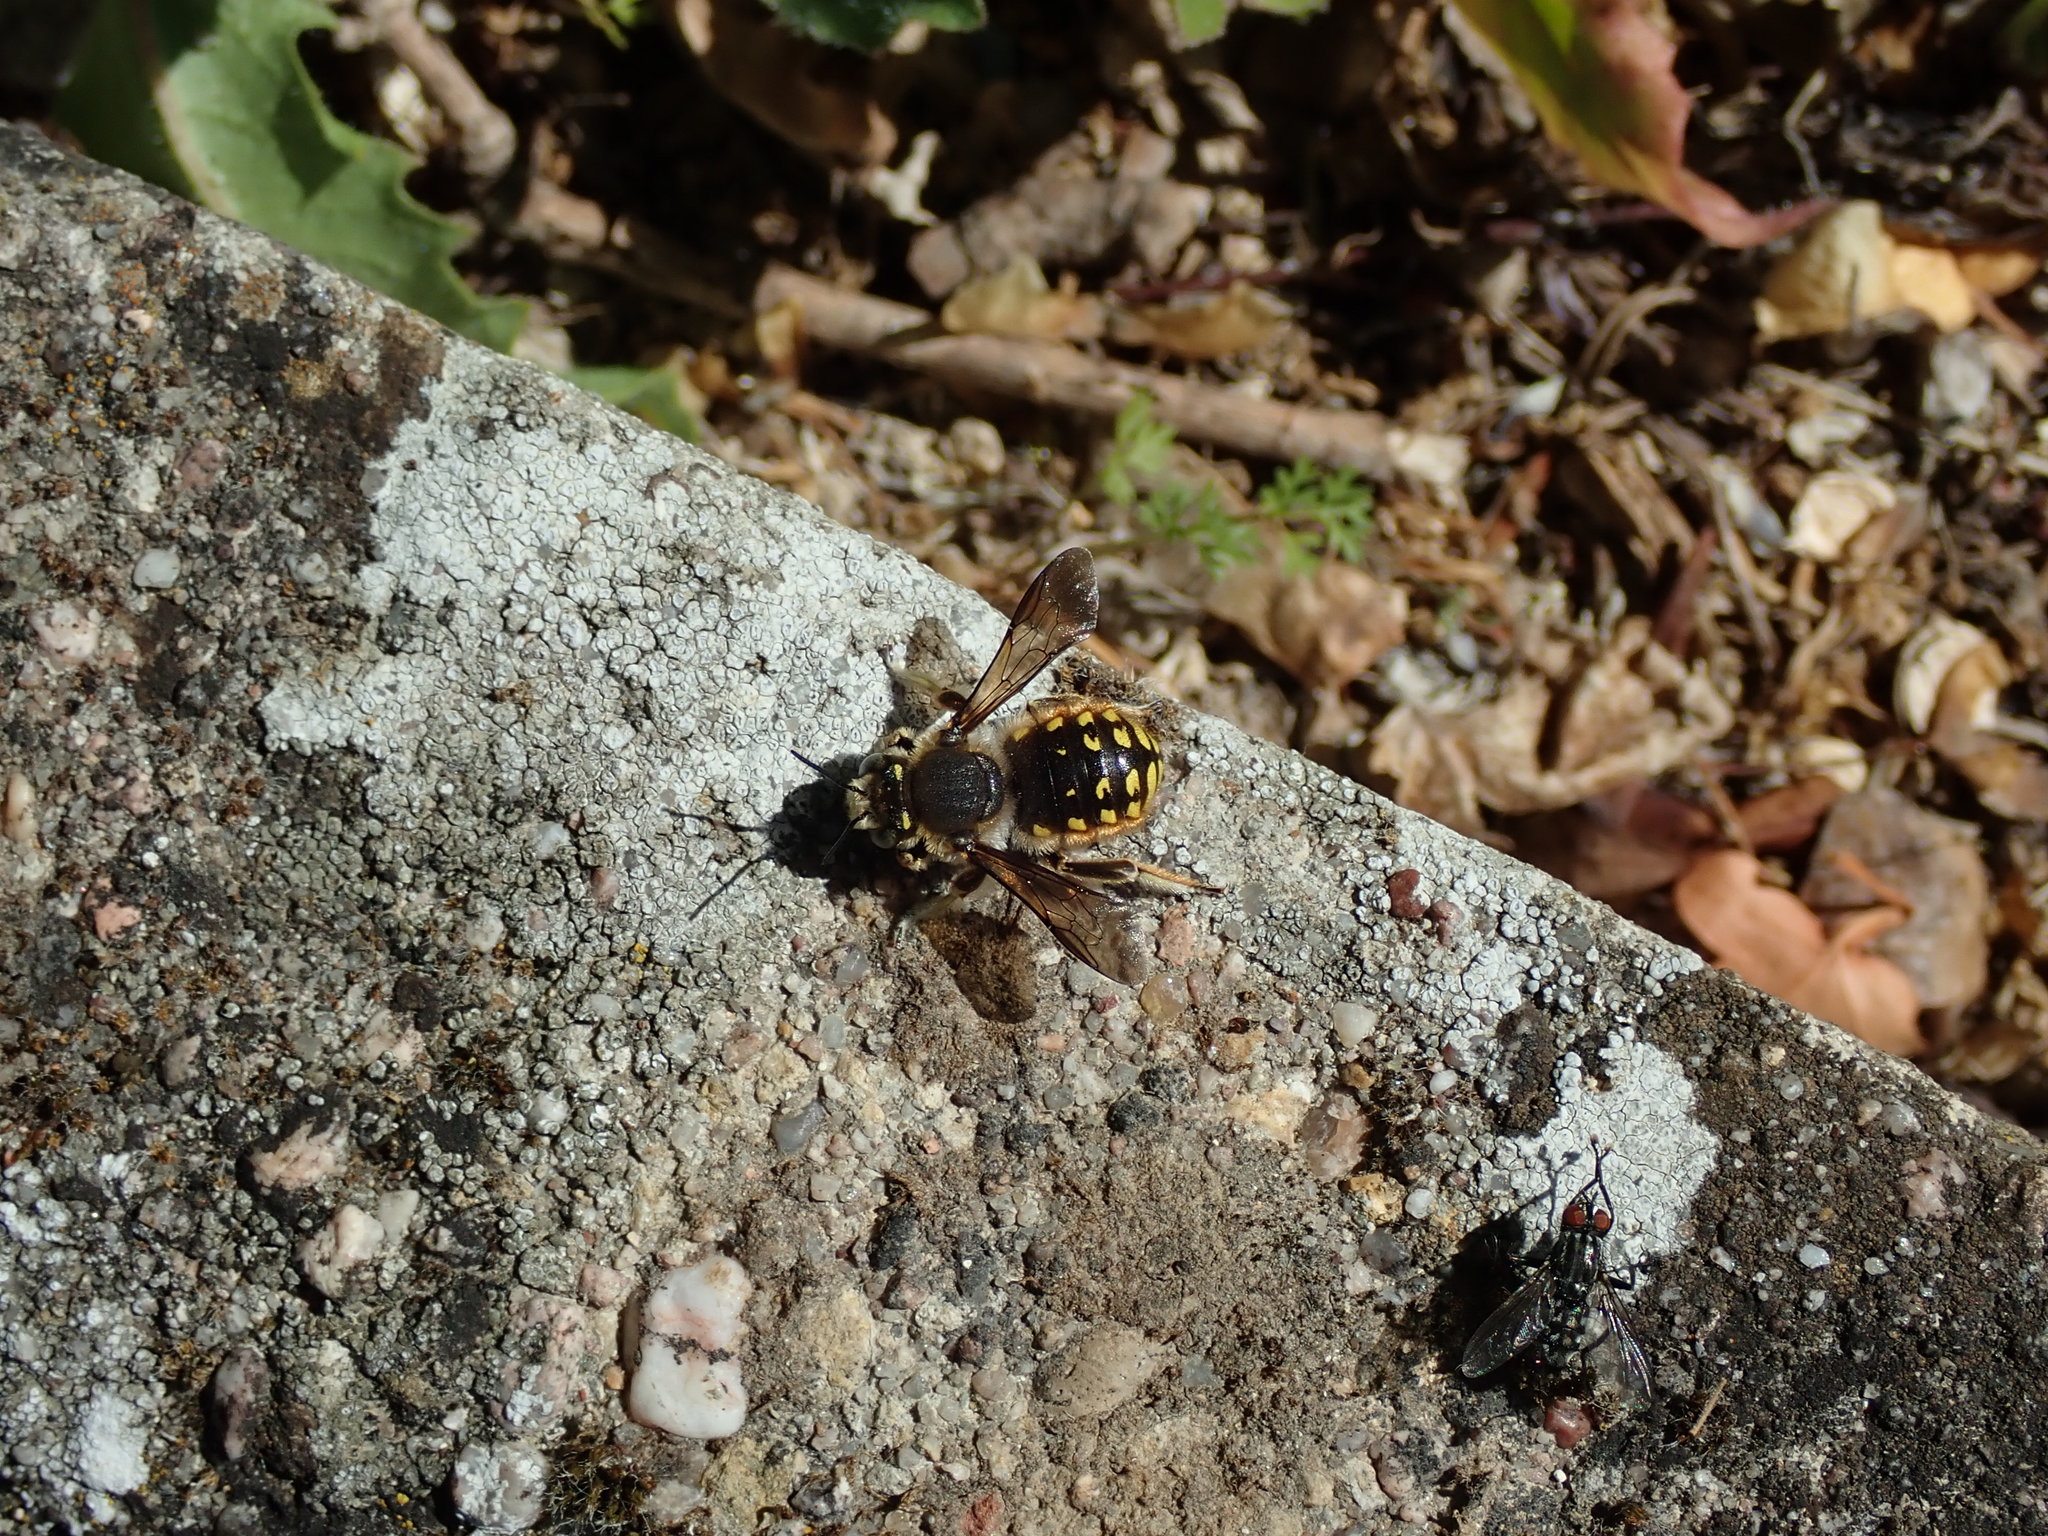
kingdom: Animalia
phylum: Arthropoda
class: Insecta
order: Hymenoptera
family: Megachilidae
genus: Anthidium
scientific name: Anthidium manicatum
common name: Wool carder bee
